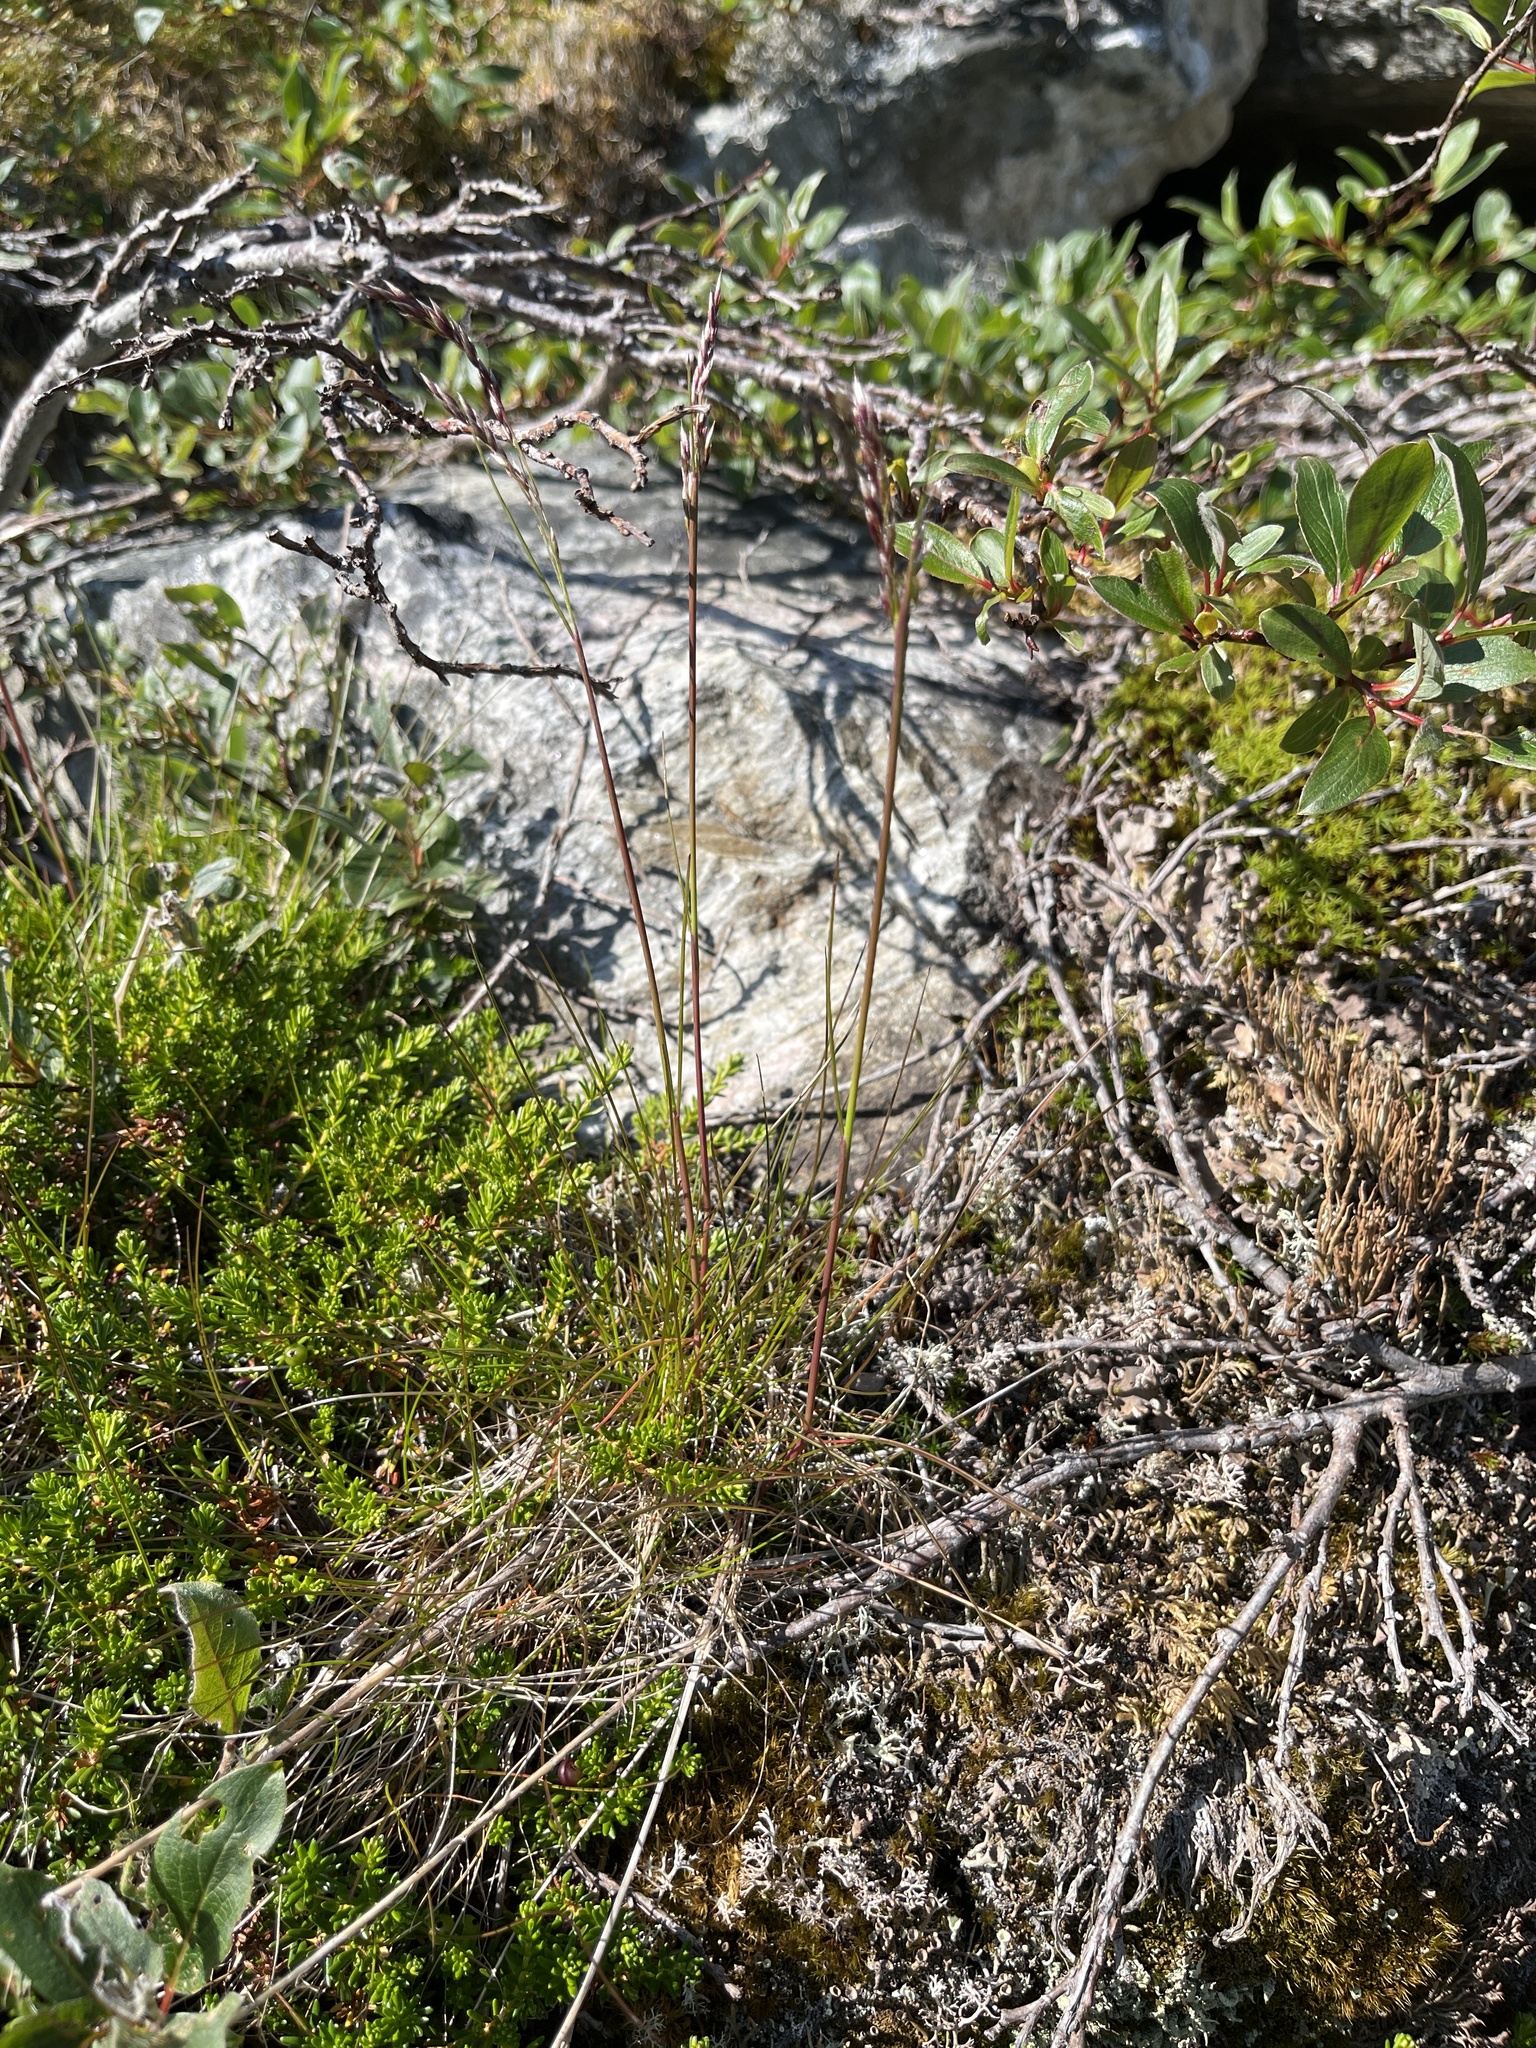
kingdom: Plantae
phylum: Tracheophyta
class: Liliopsida
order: Poales
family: Poaceae
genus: Avenella
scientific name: Avenella flexuosa
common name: Wavy hairgrass
